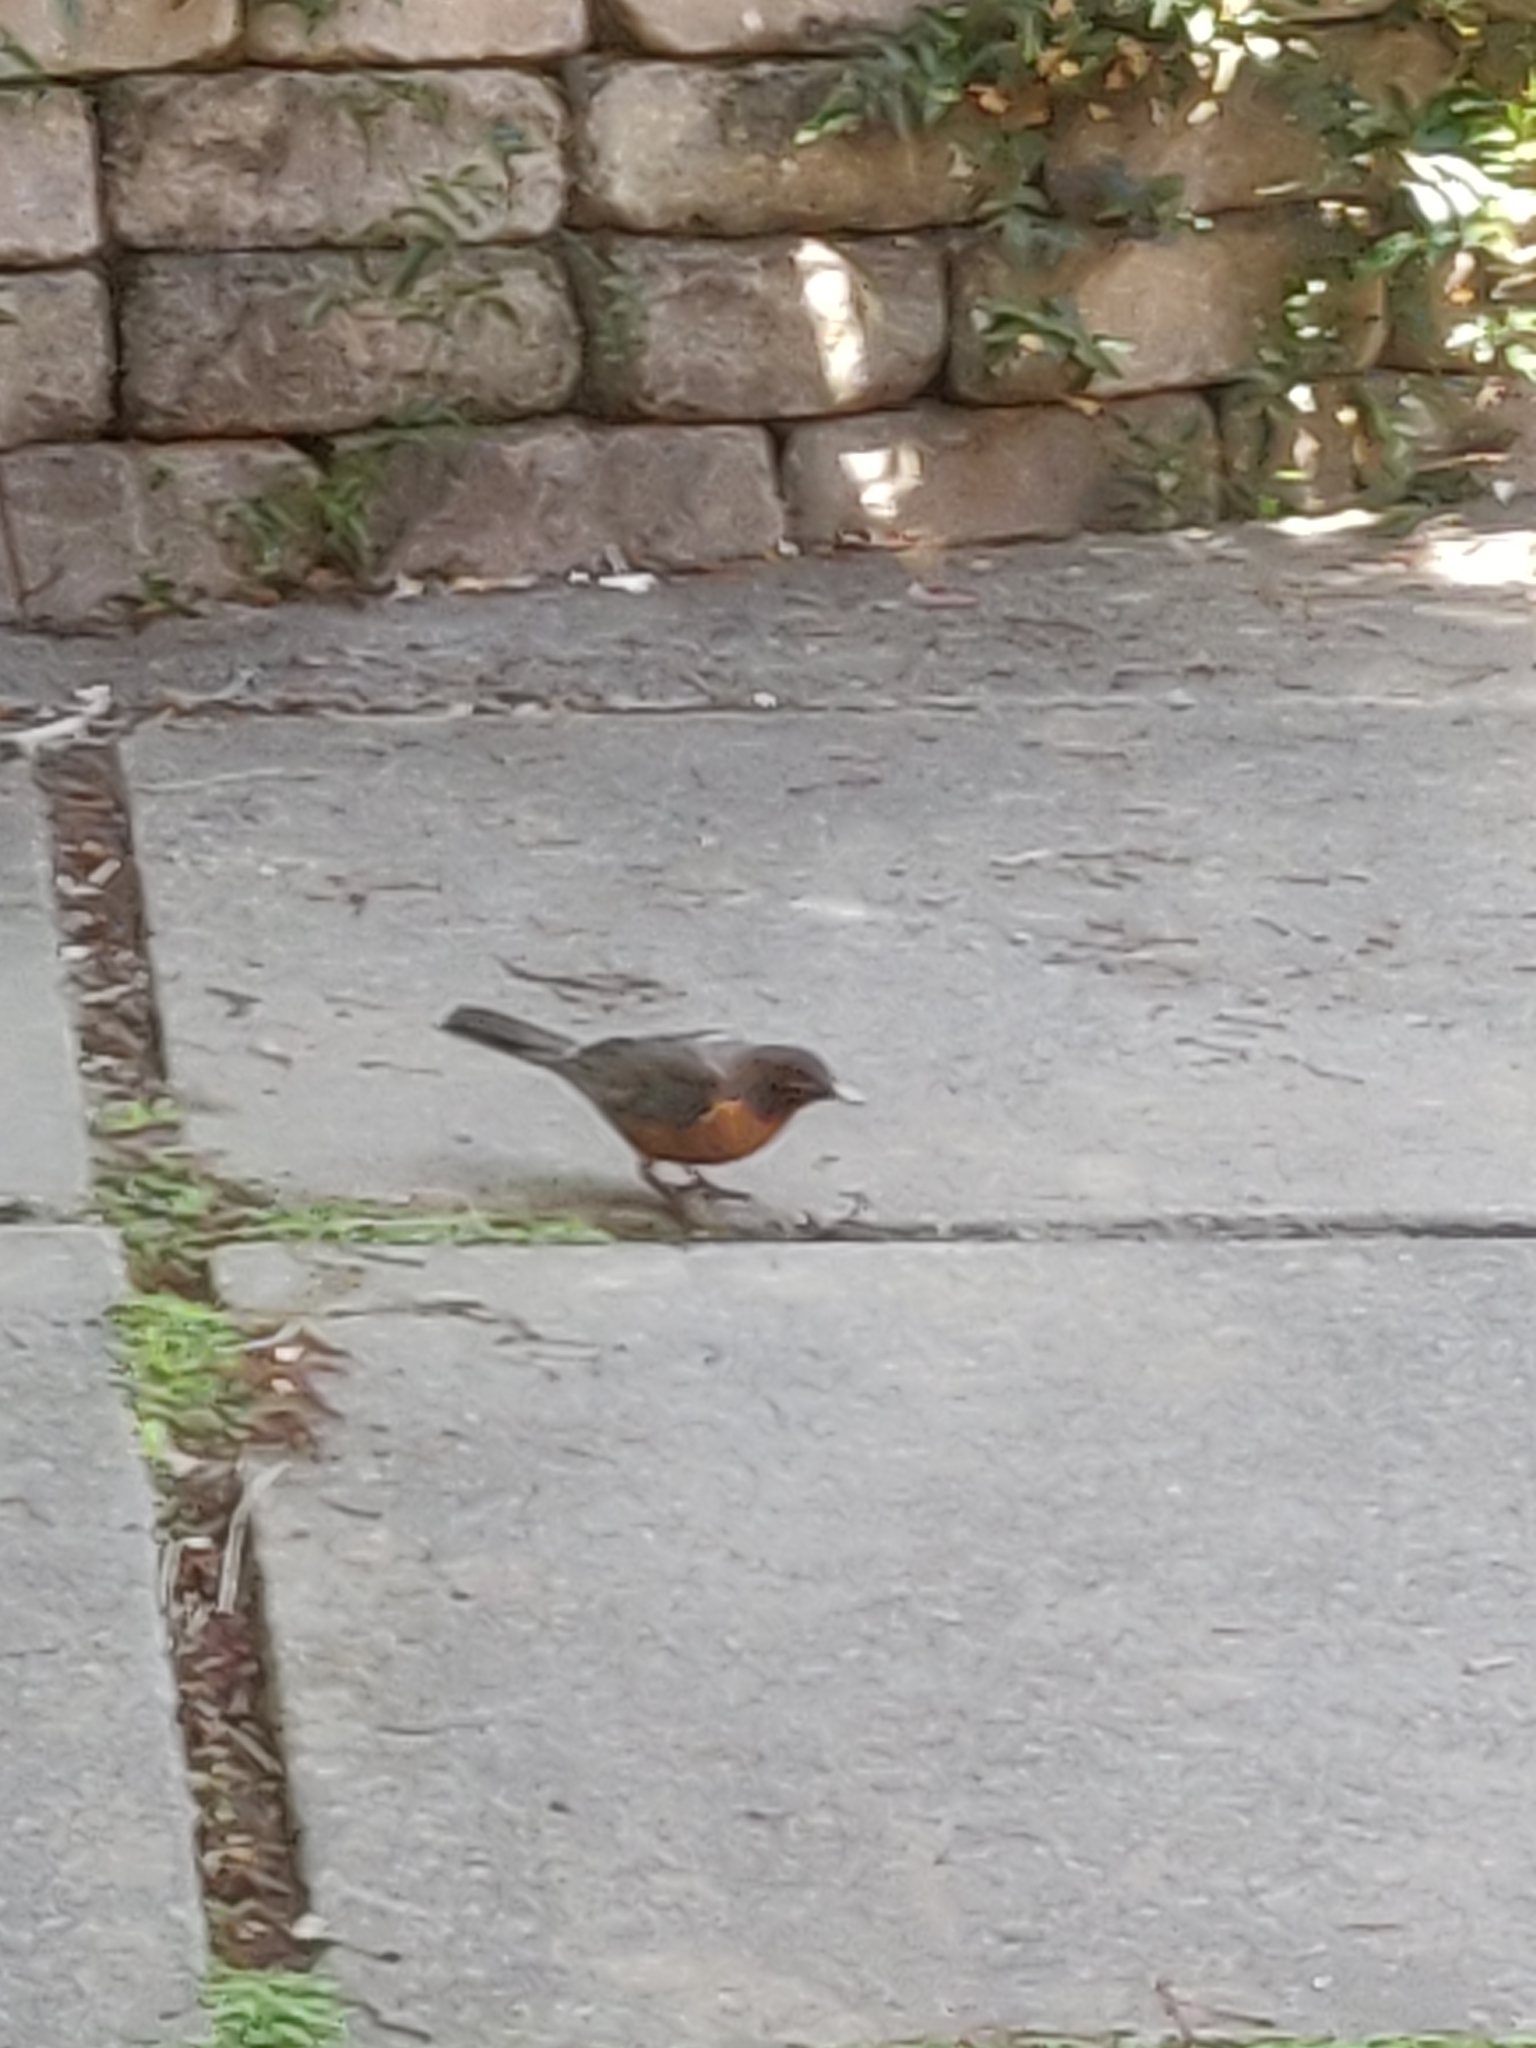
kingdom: Animalia
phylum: Chordata
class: Aves
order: Passeriformes
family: Turdidae
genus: Turdus
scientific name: Turdus migratorius
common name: American robin
